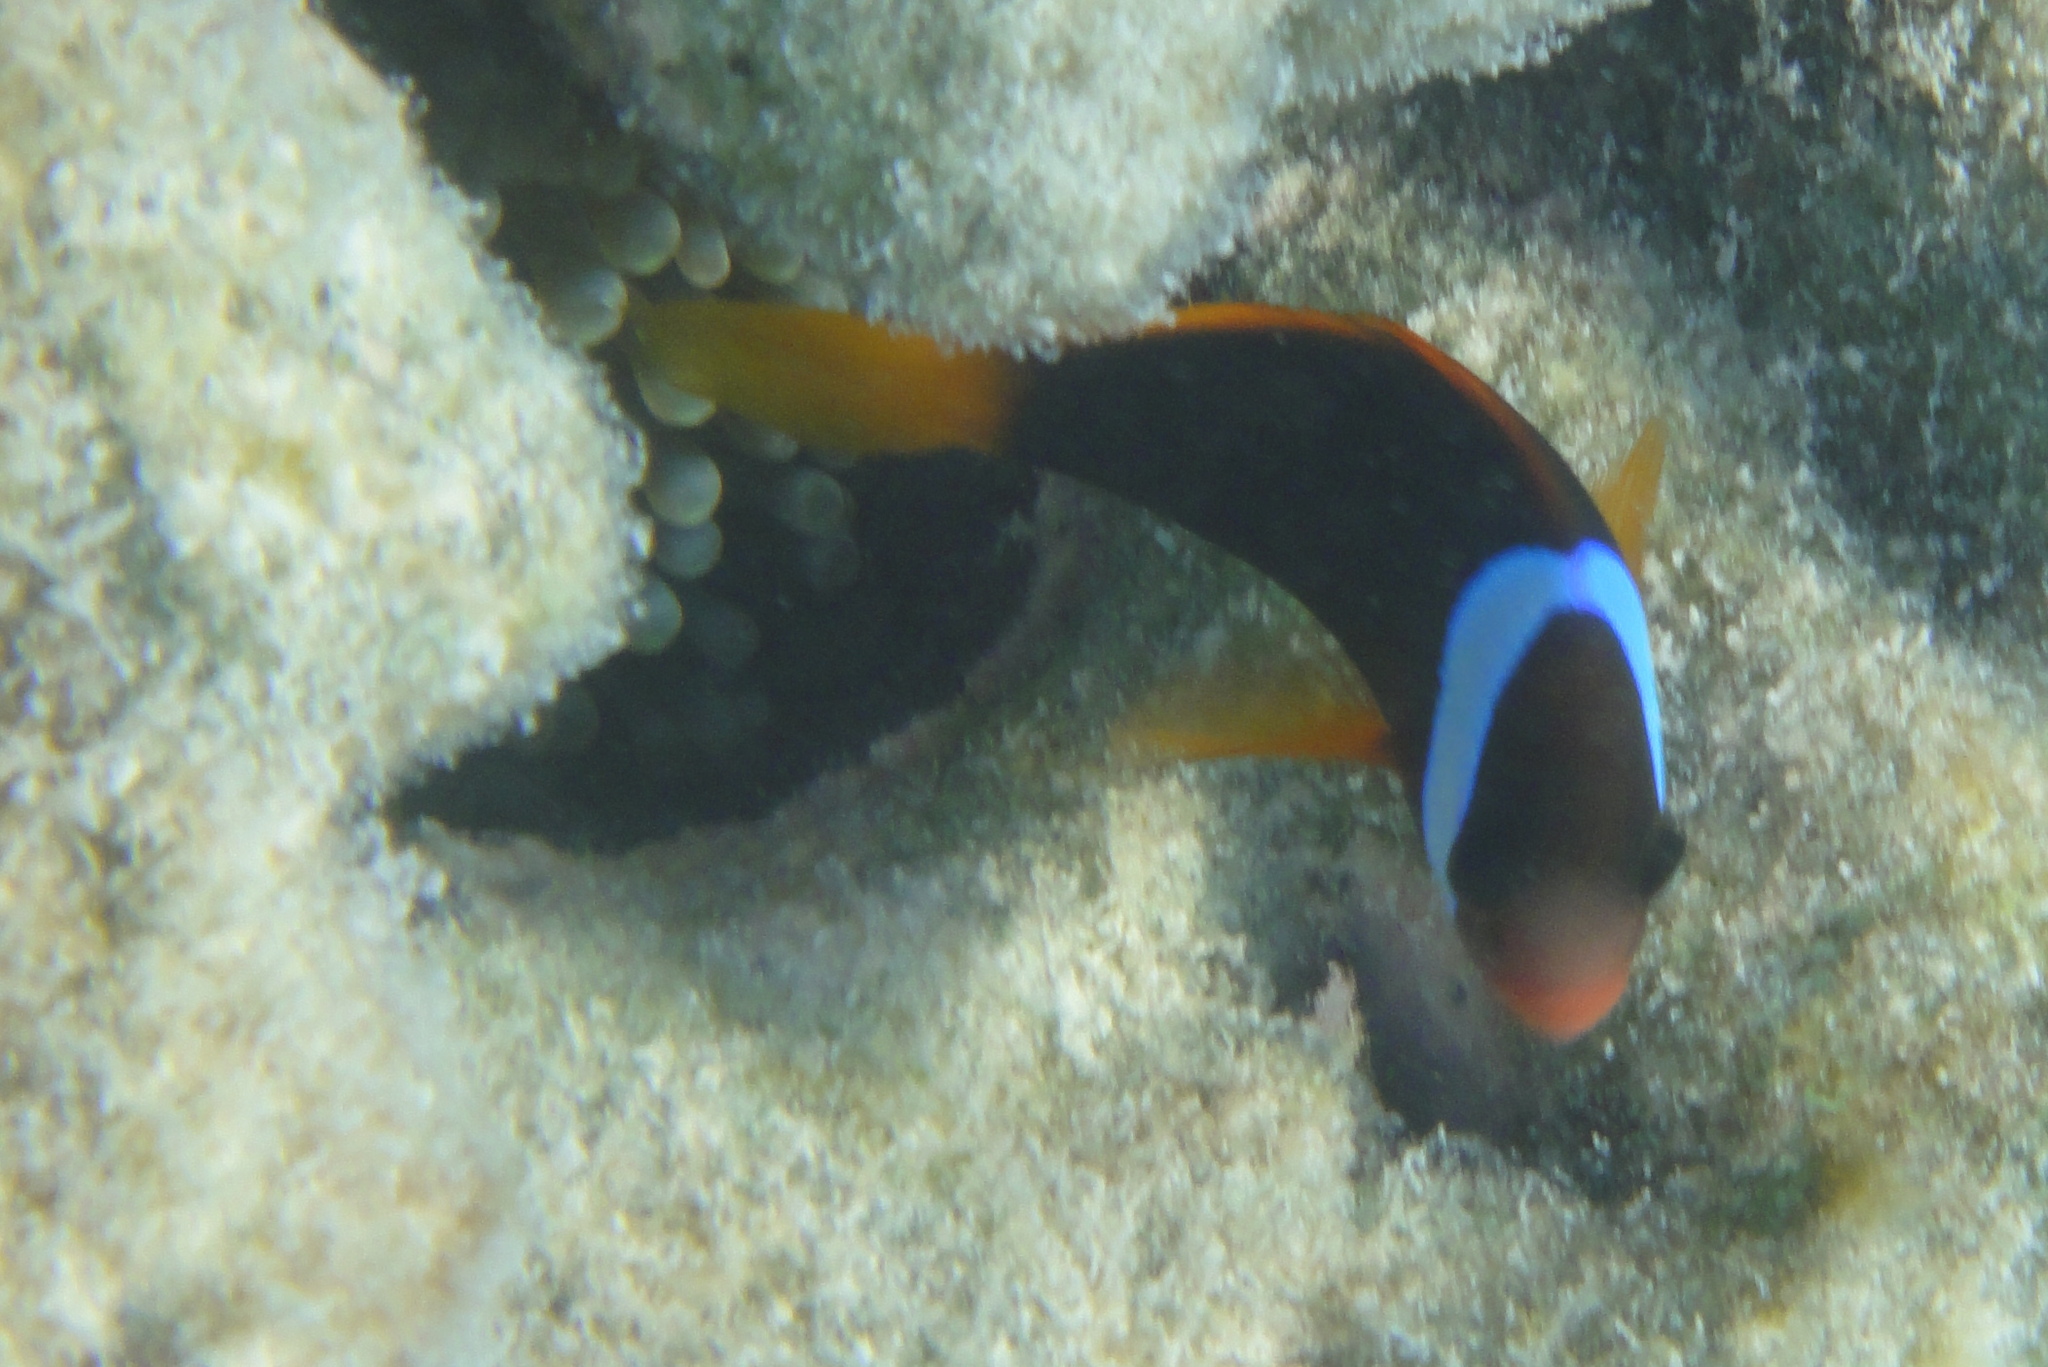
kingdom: Animalia
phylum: Chordata
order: Perciformes
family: Pomacentridae
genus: Amphiprion
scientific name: Amphiprion melanopus
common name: Black anemonefish
